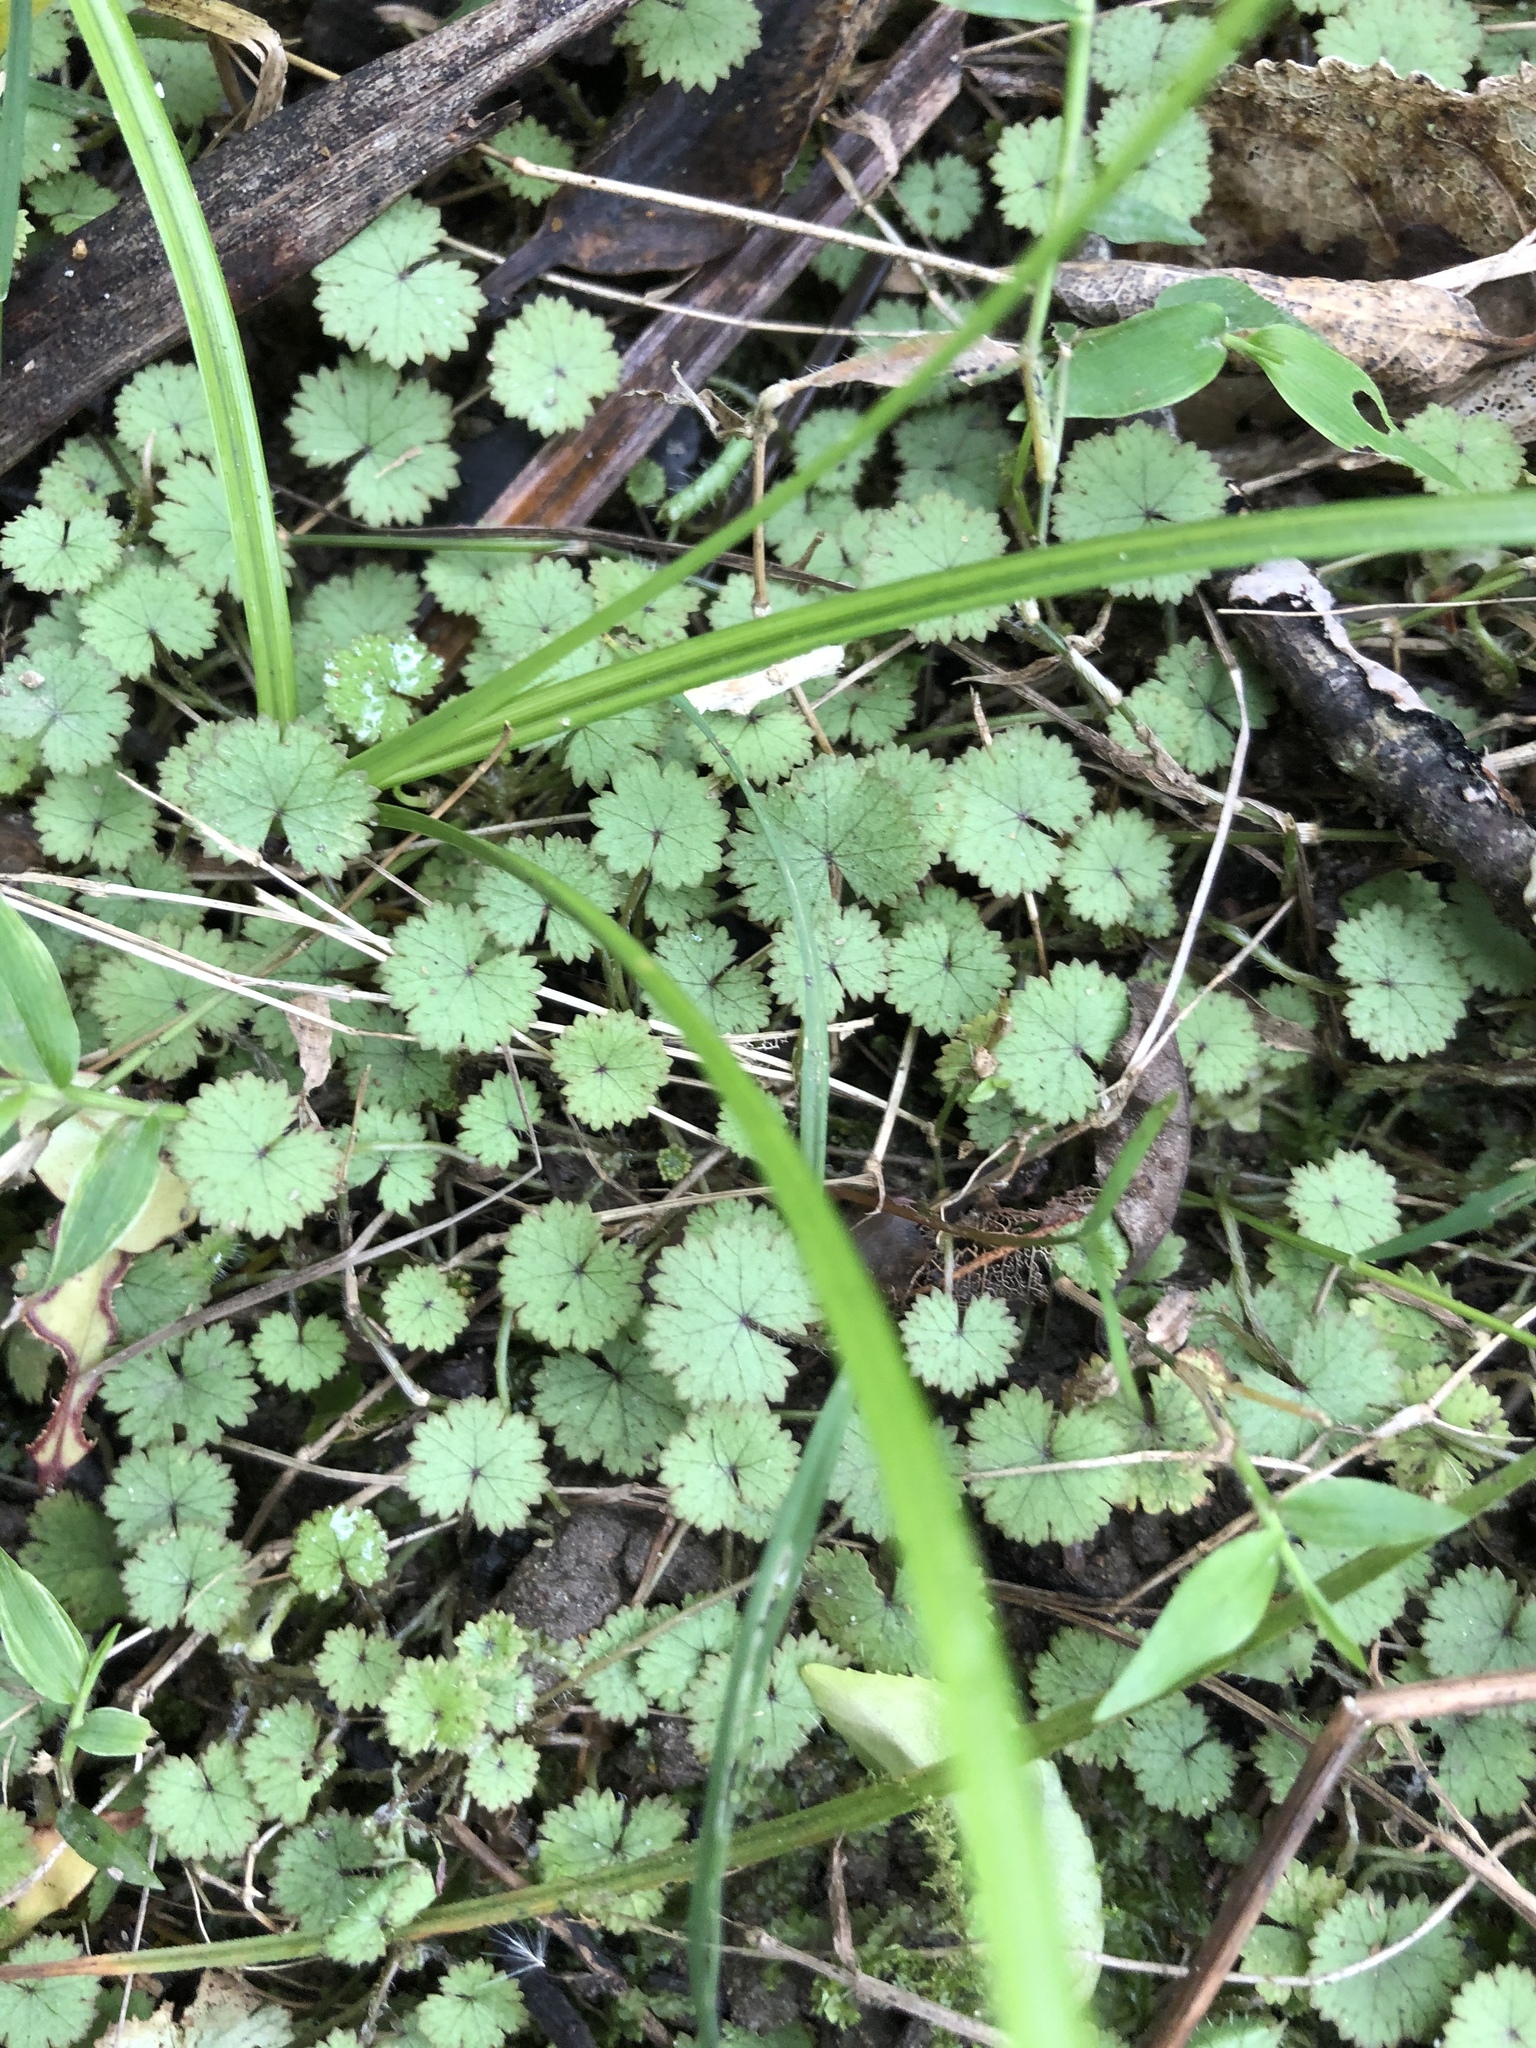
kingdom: Plantae
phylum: Tracheophyta
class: Magnoliopsida
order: Apiales
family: Araliaceae
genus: Hydrocotyle
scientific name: Hydrocotyle moschata
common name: Hairy pennywort
